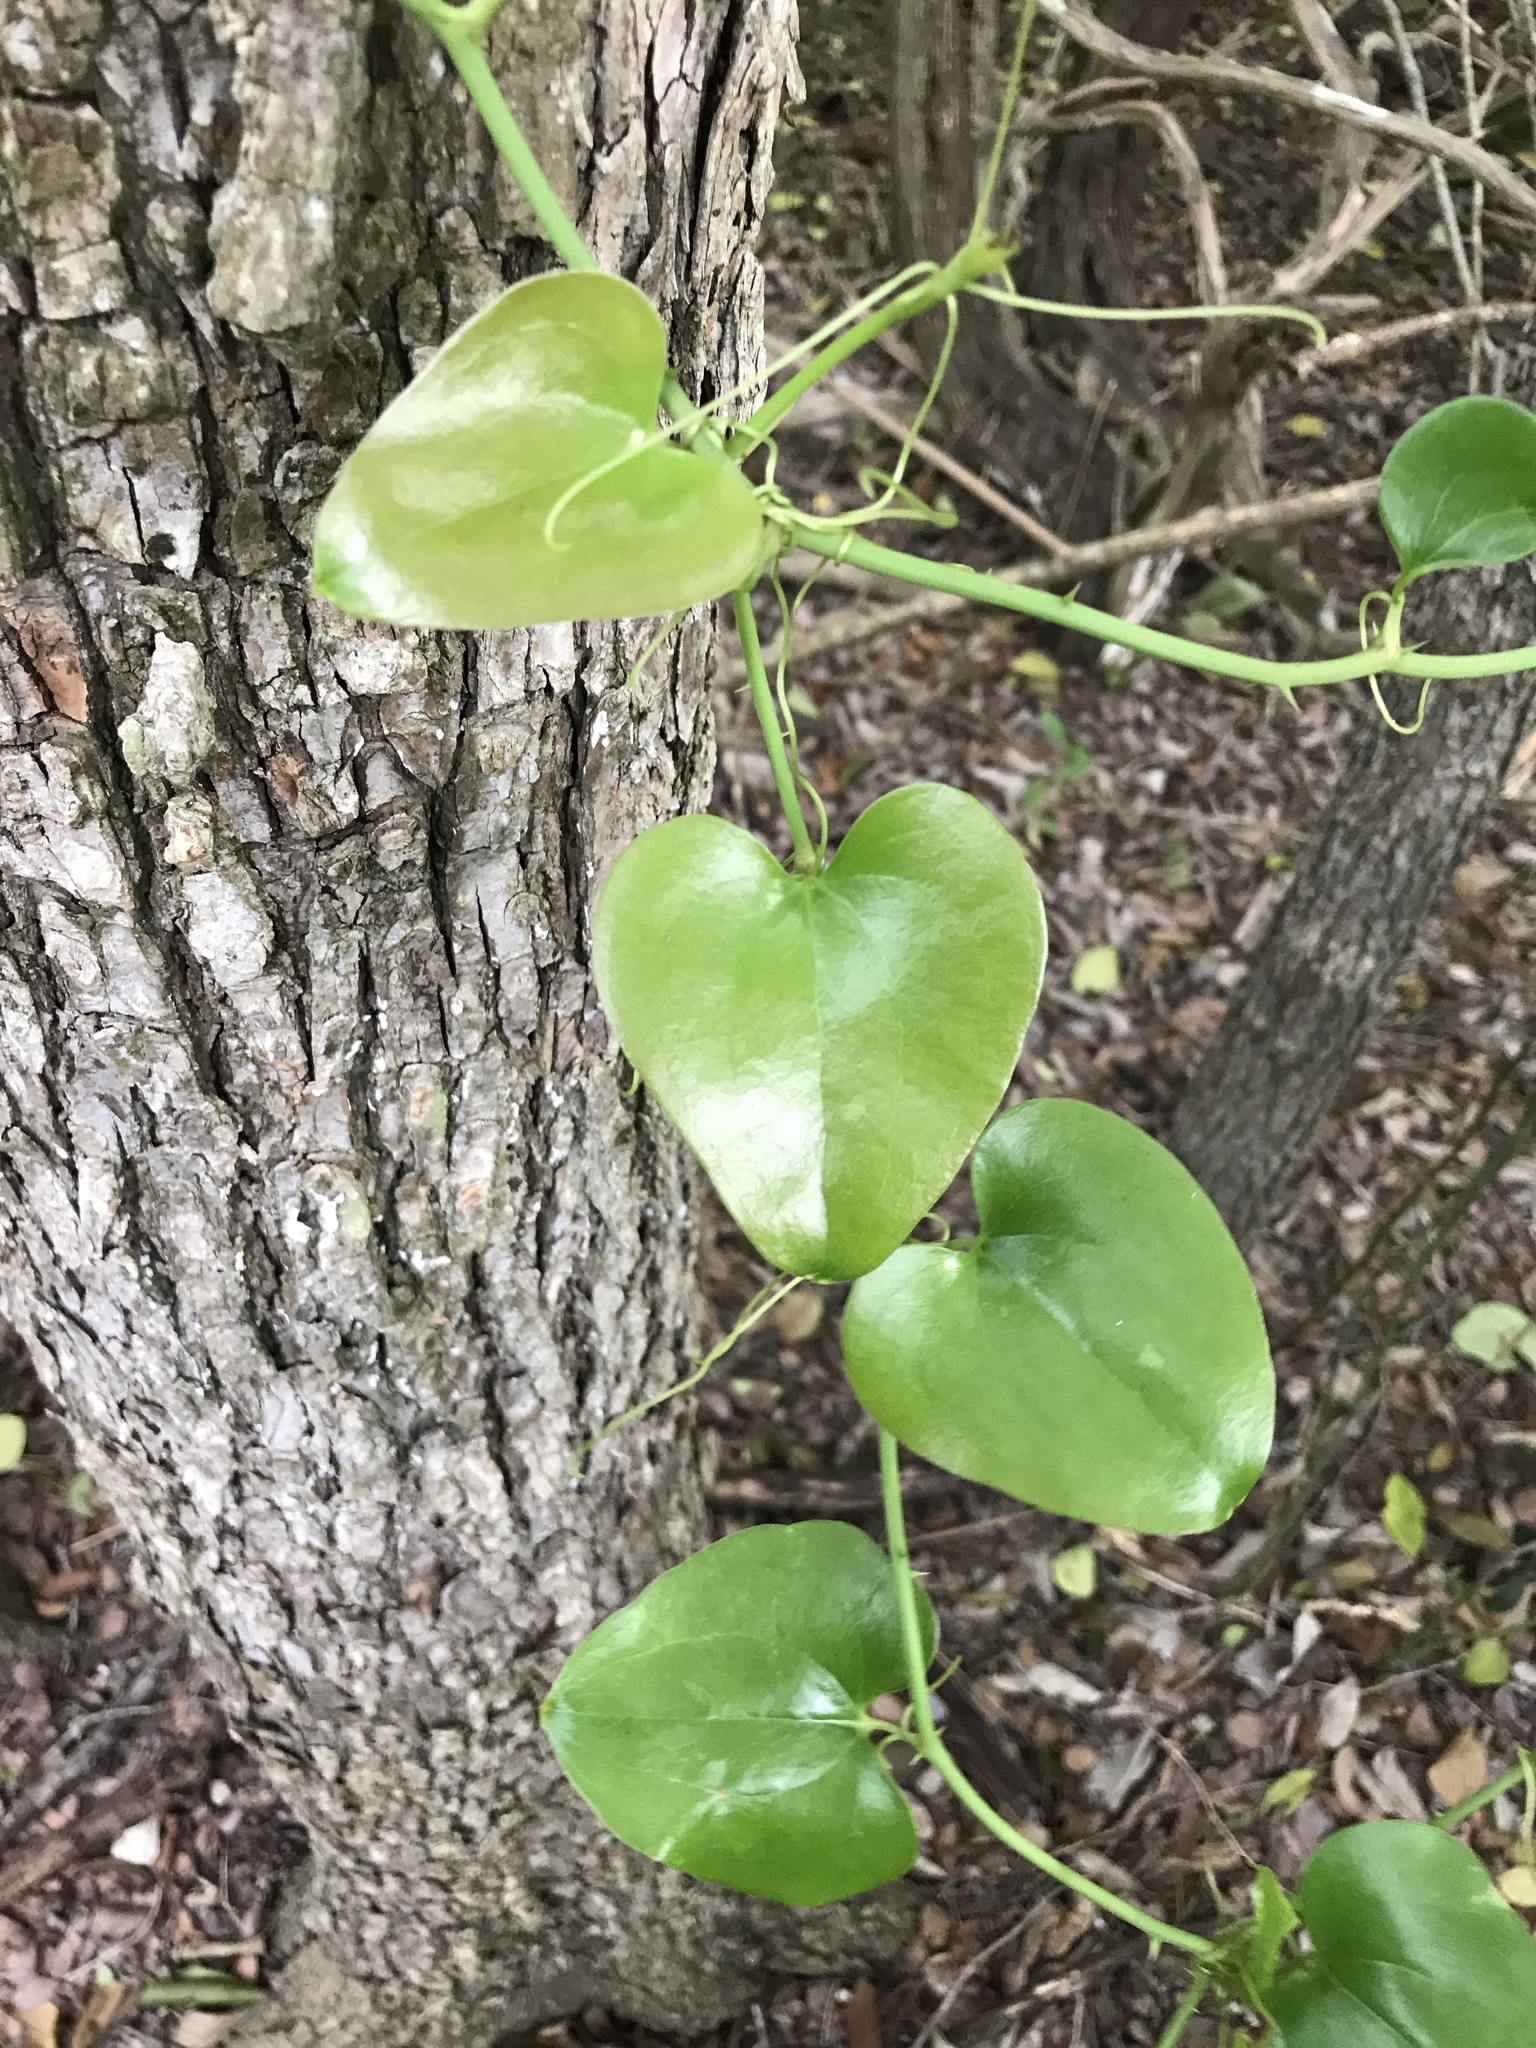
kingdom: Plantae
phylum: Tracheophyta
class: Liliopsida
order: Liliales
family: Smilacaceae
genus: Smilax
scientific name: Smilax bona-nox
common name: Catbrier
